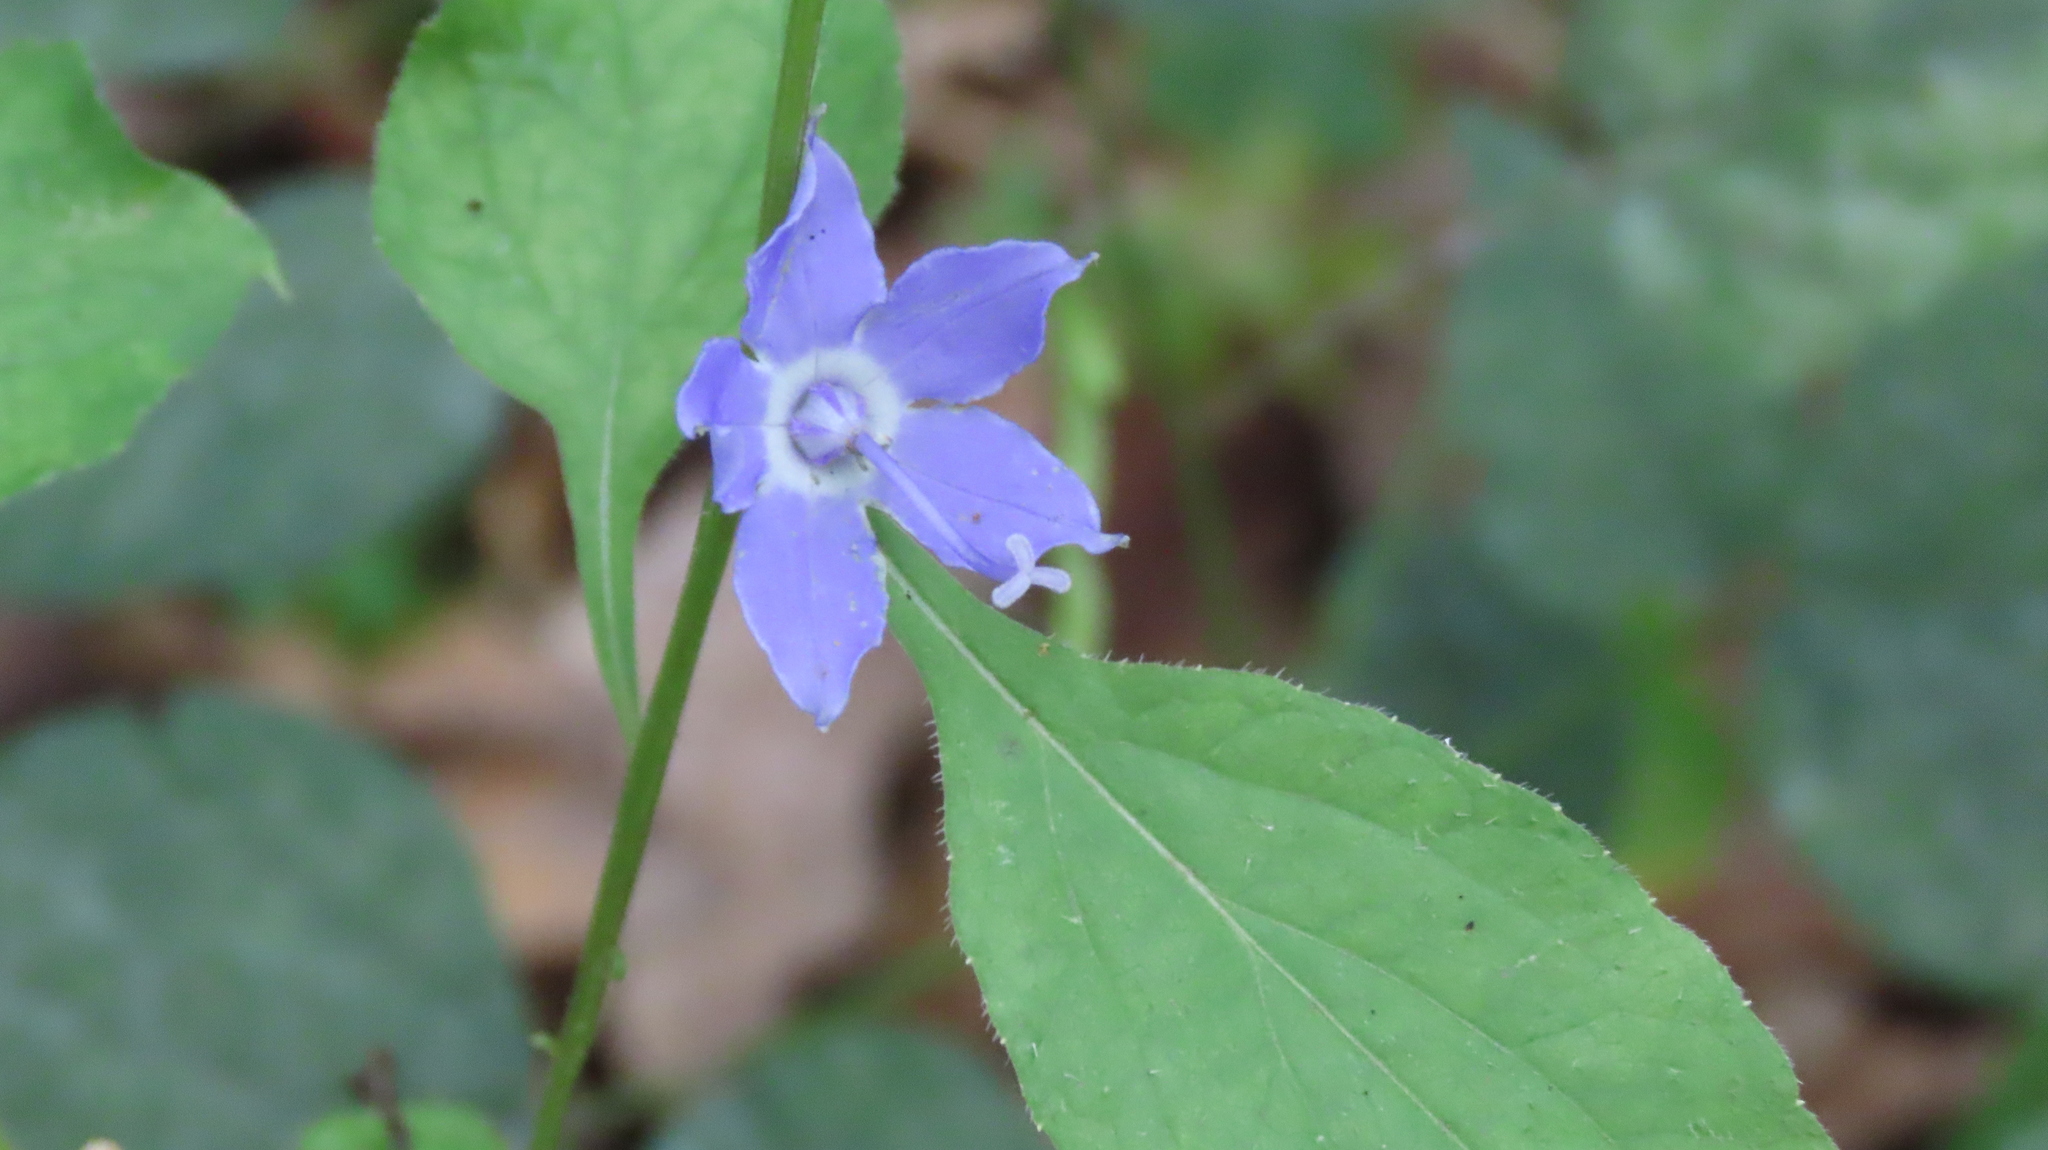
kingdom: Plantae
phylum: Tracheophyta
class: Magnoliopsida
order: Asterales
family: Campanulaceae
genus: Campanulastrum
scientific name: Campanulastrum americanum
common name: American bellflower
